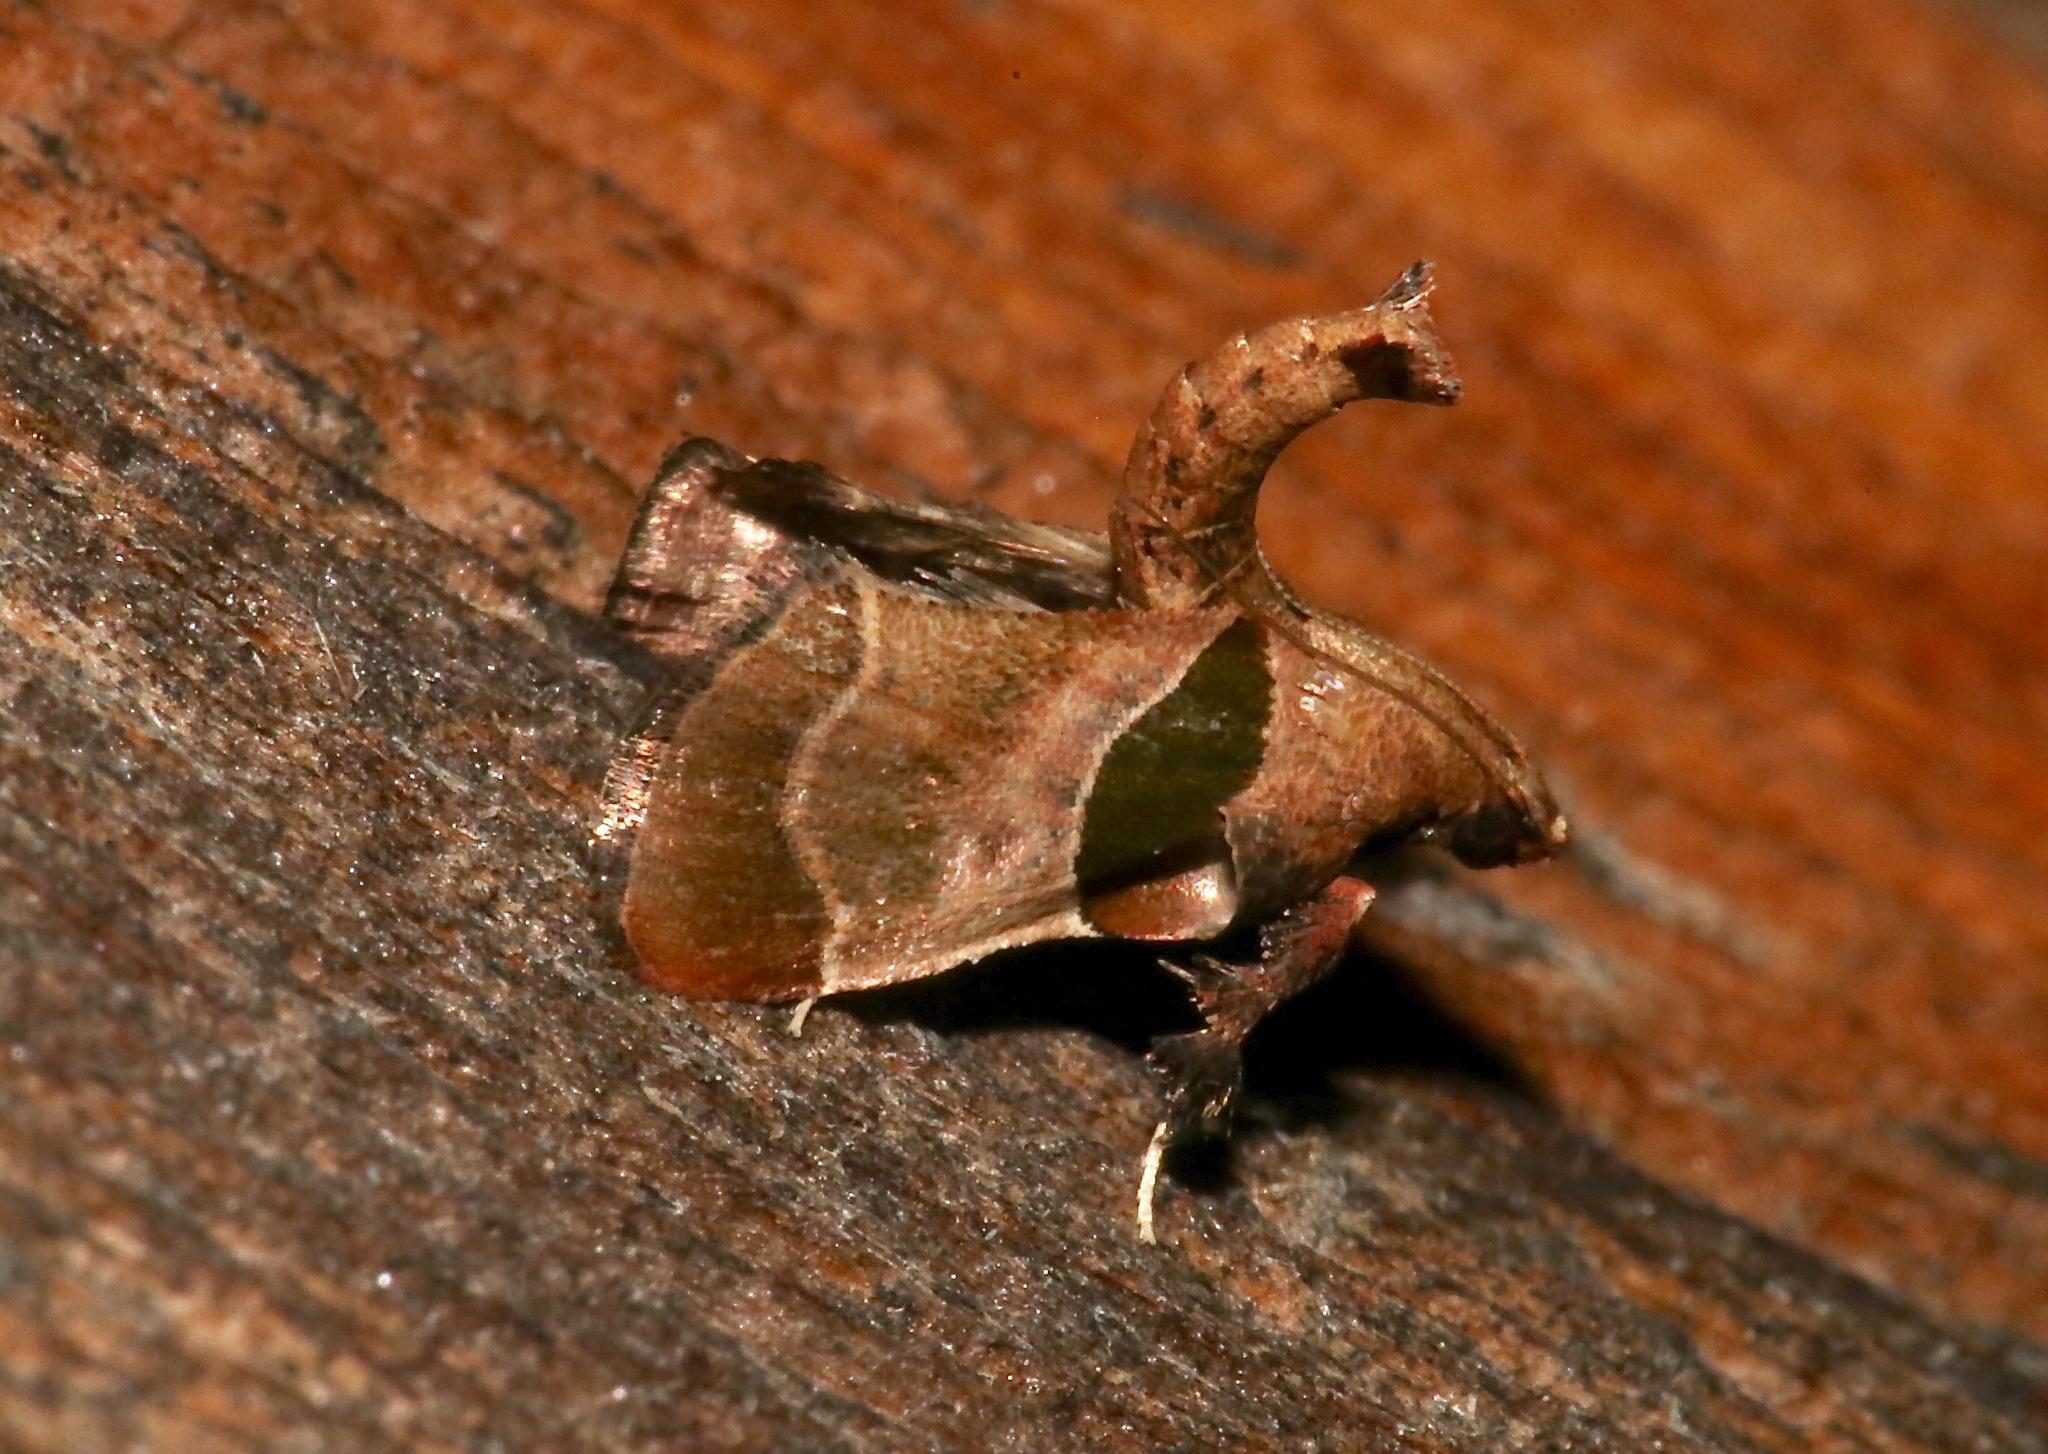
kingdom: Animalia
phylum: Arthropoda
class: Insecta
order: Lepidoptera
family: Pyralidae
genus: Tosale
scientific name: Tosale oviplagalis
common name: Dimorphic tosale moth
